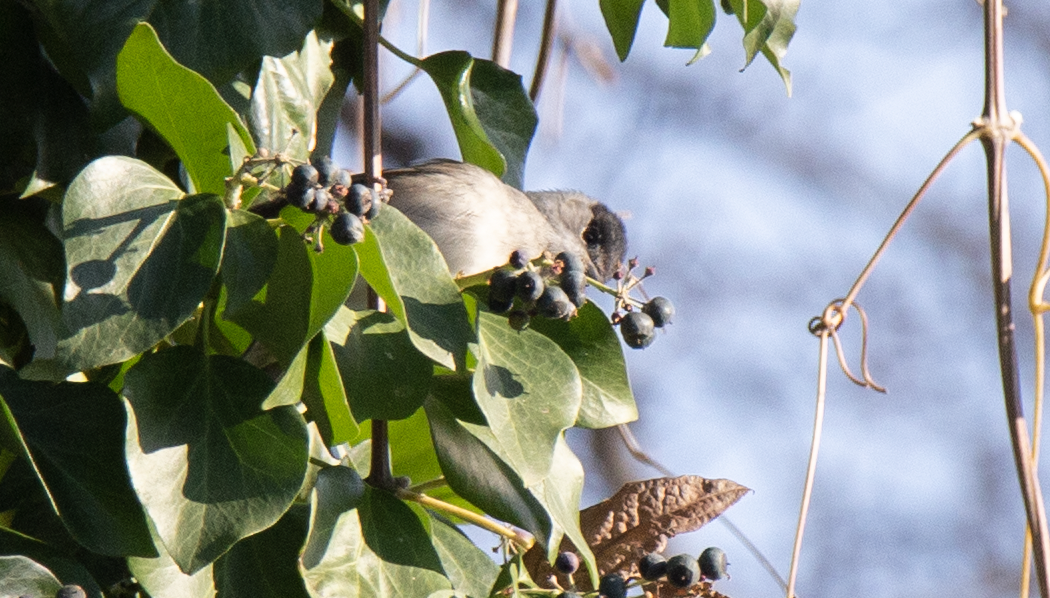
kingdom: Animalia
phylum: Chordata
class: Aves
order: Passeriformes
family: Sylviidae
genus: Sylvia
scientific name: Sylvia atricapilla
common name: Eurasian blackcap
